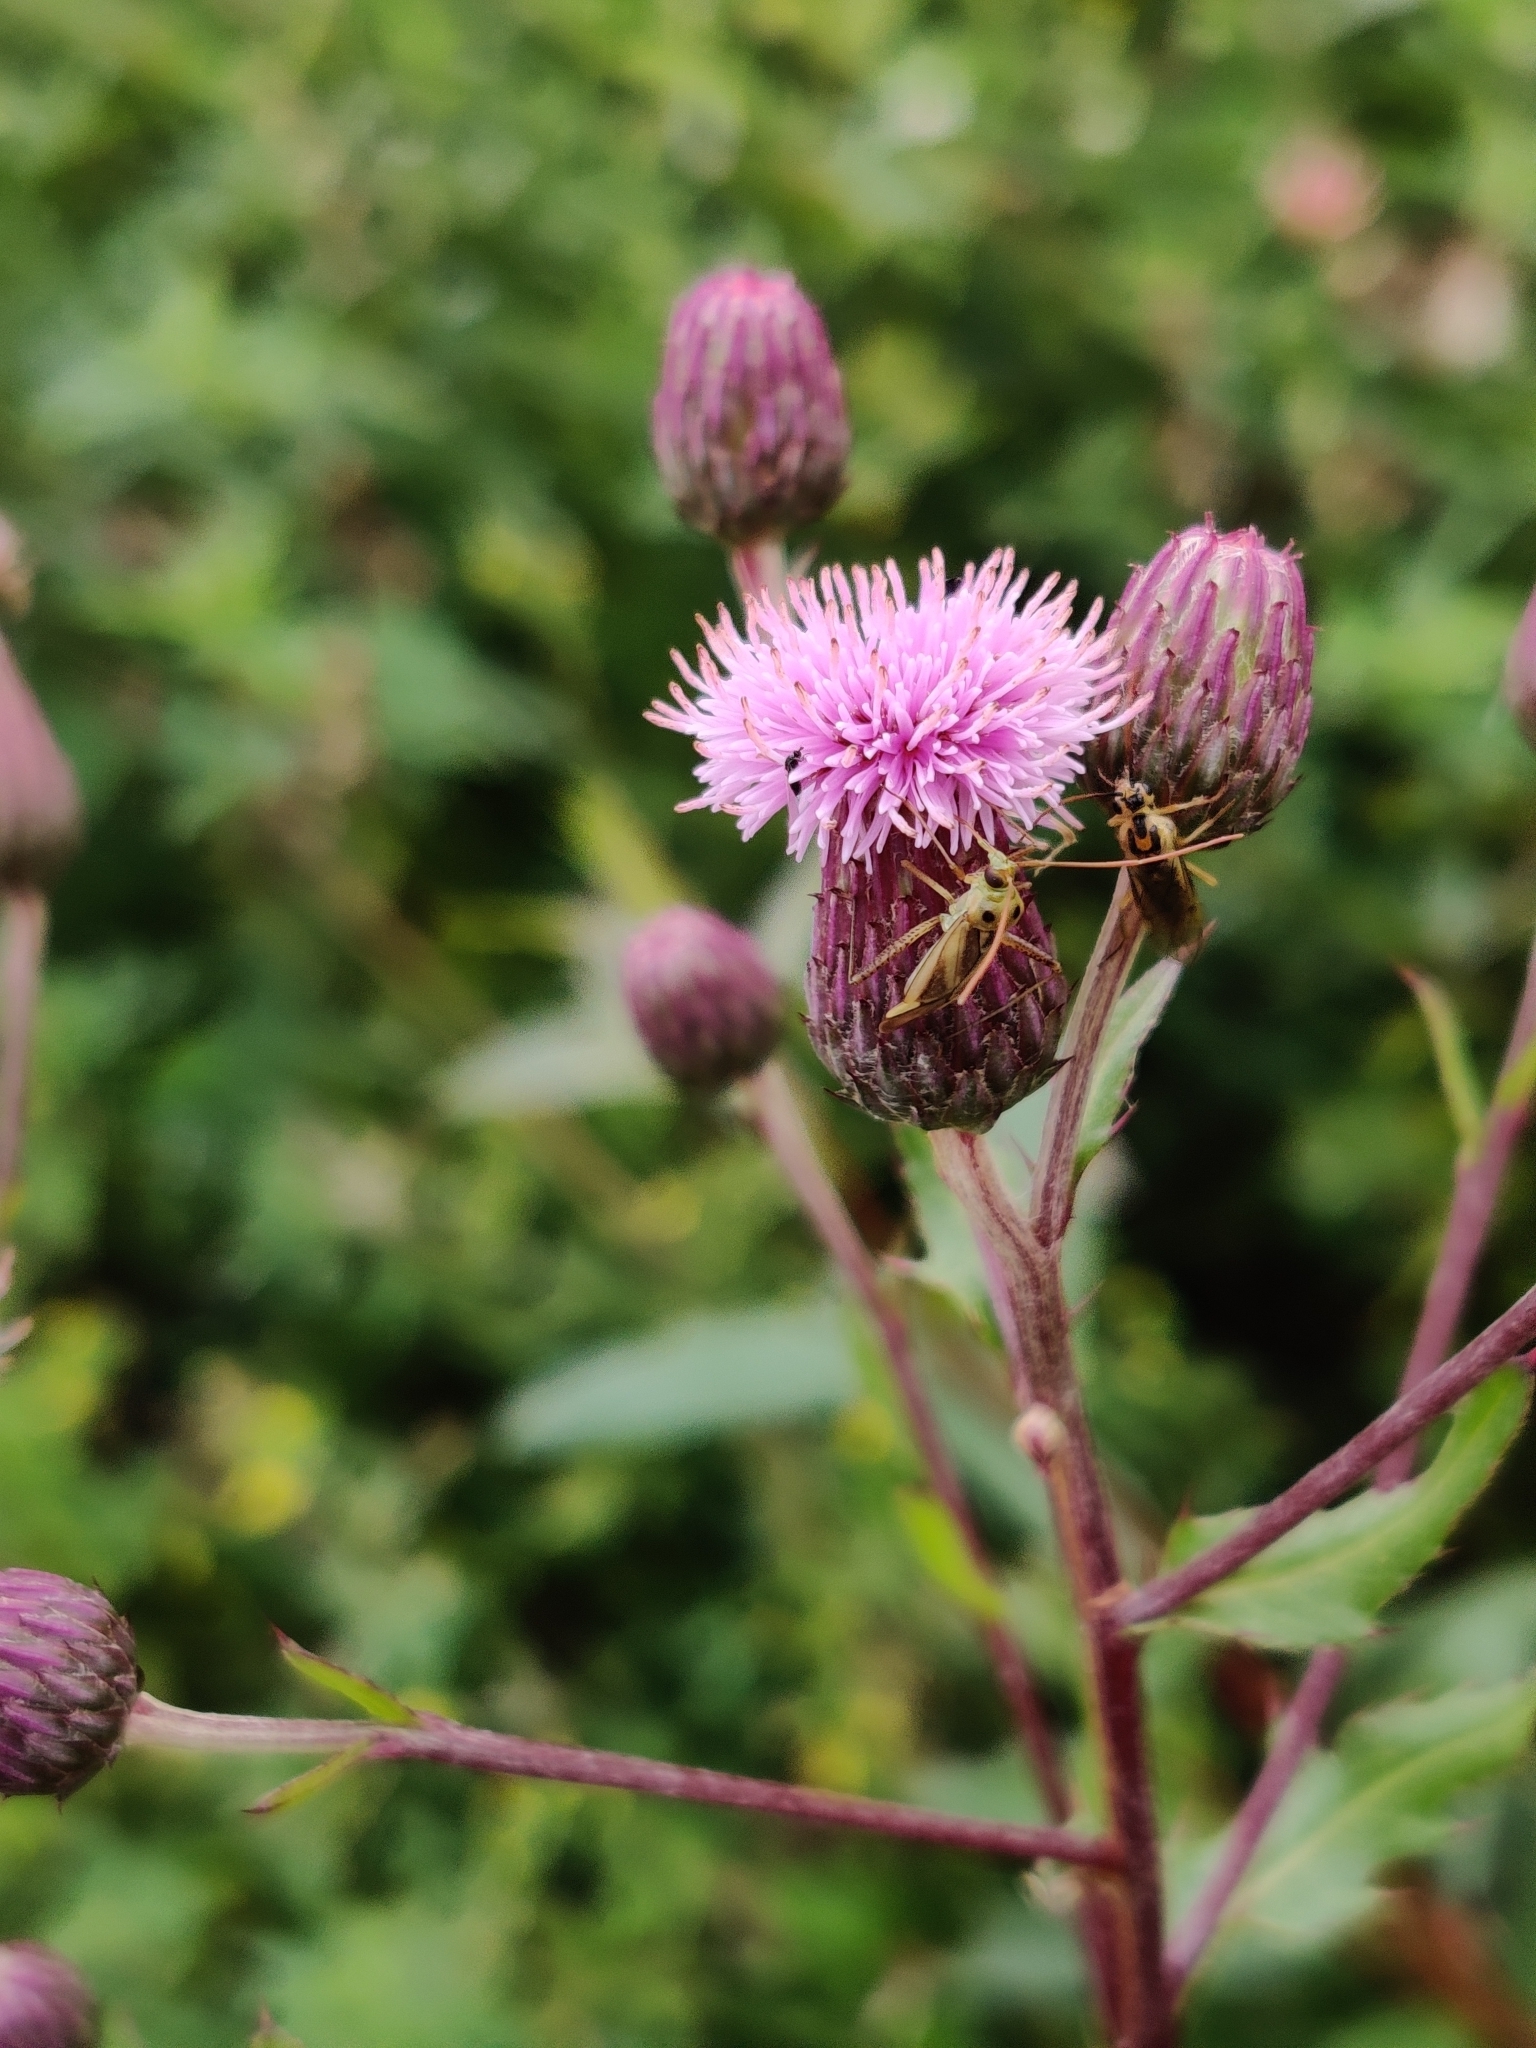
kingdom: Animalia
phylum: Arthropoda
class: Insecta
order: Hemiptera
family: Miridae
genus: Adelphocoris
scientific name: Adelphocoris lineolatus
